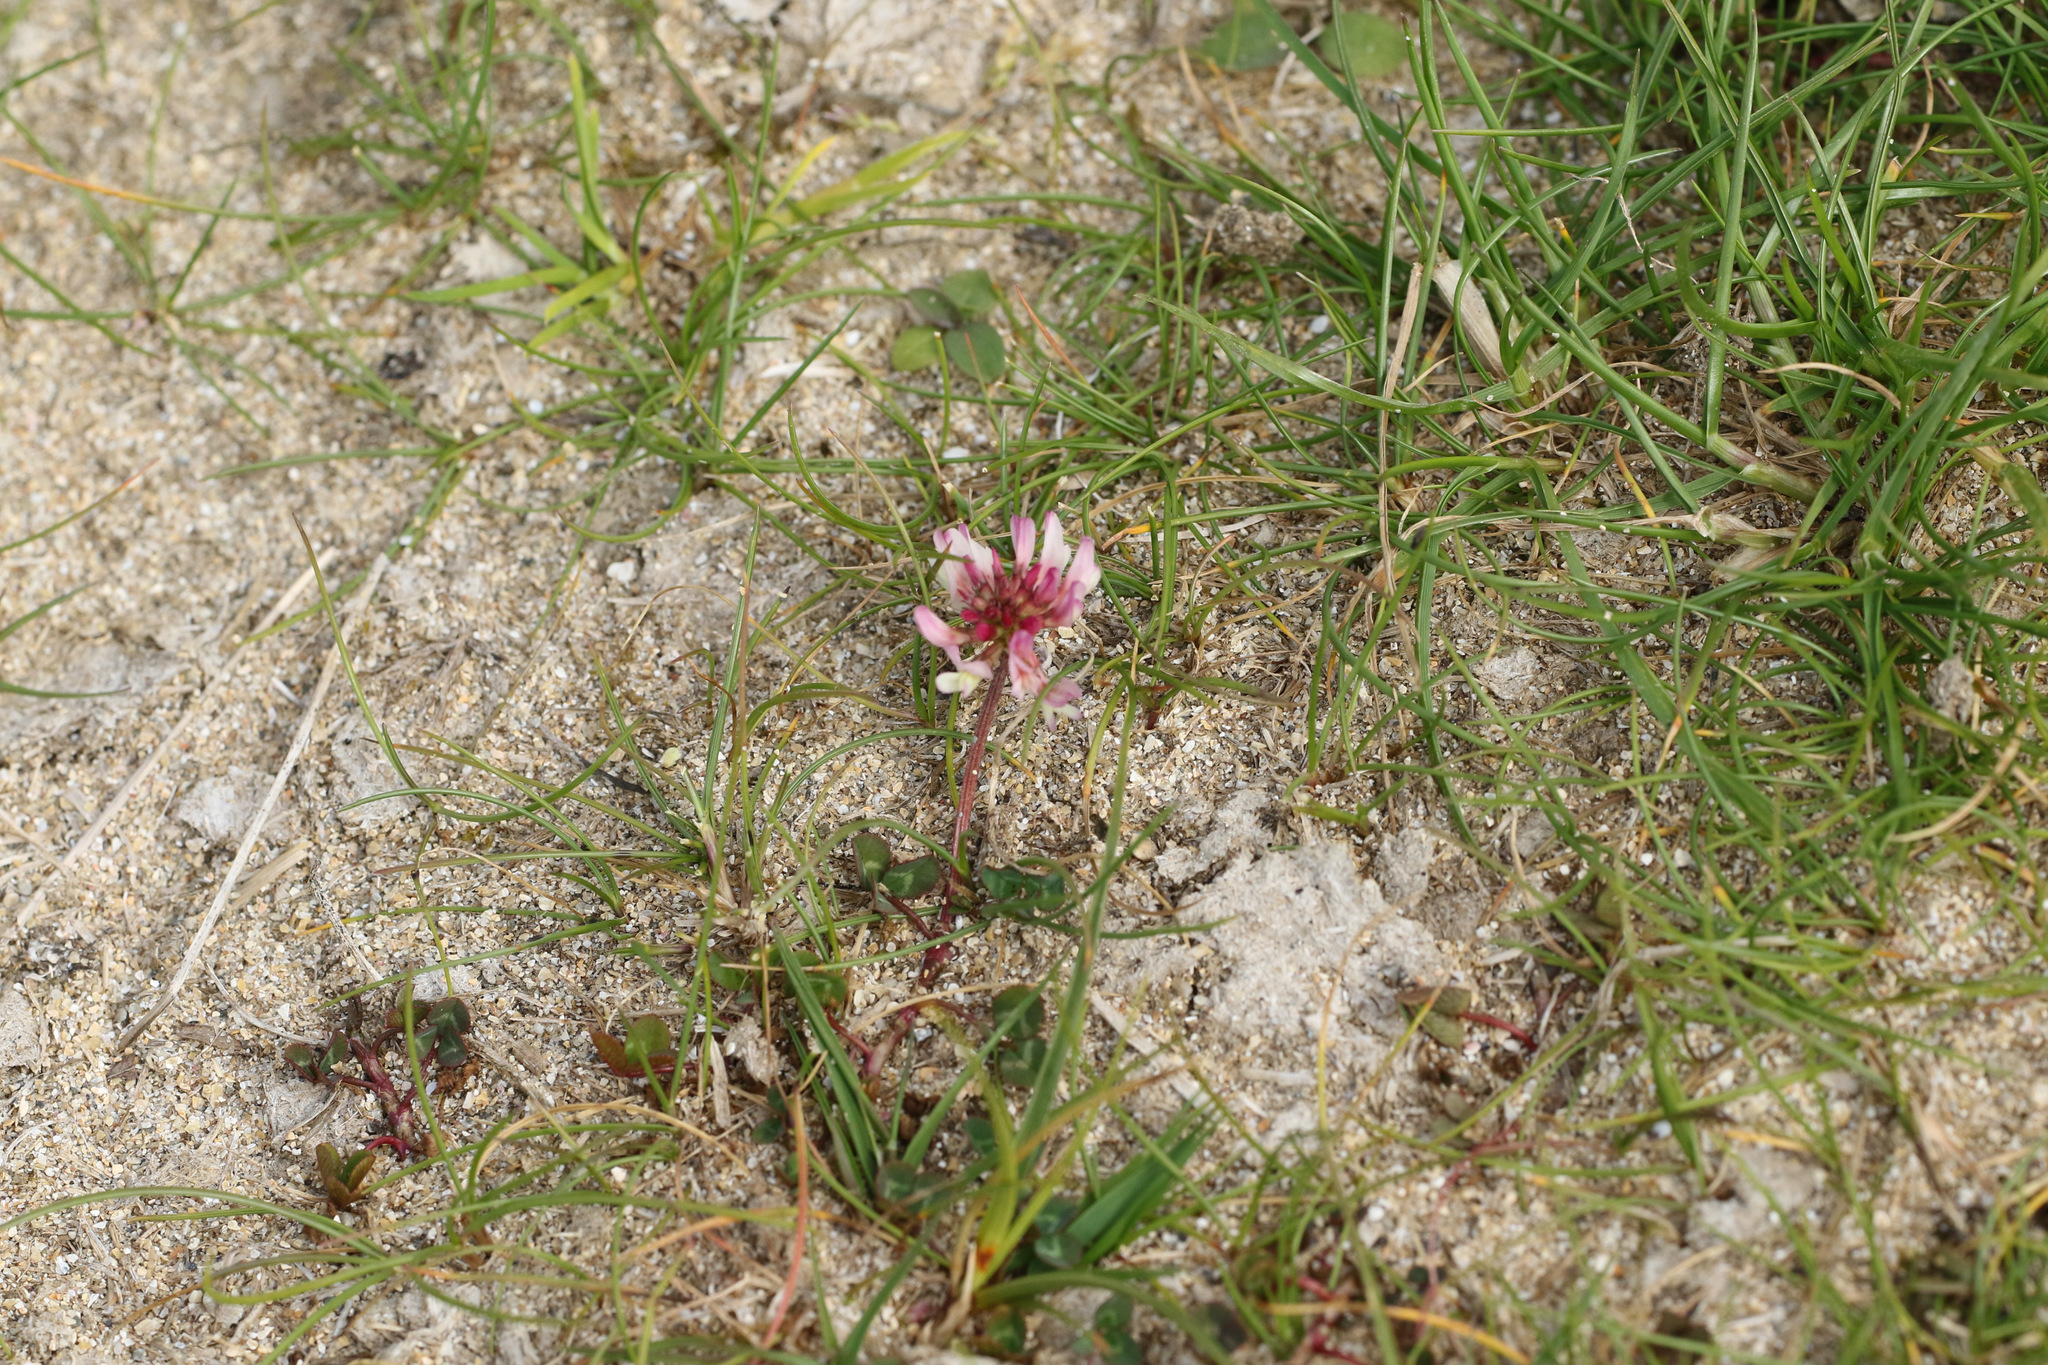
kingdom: Plantae
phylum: Tracheophyta
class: Magnoliopsida
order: Fabales
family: Fabaceae
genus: Trifolium
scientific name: Trifolium repens
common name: White clover
